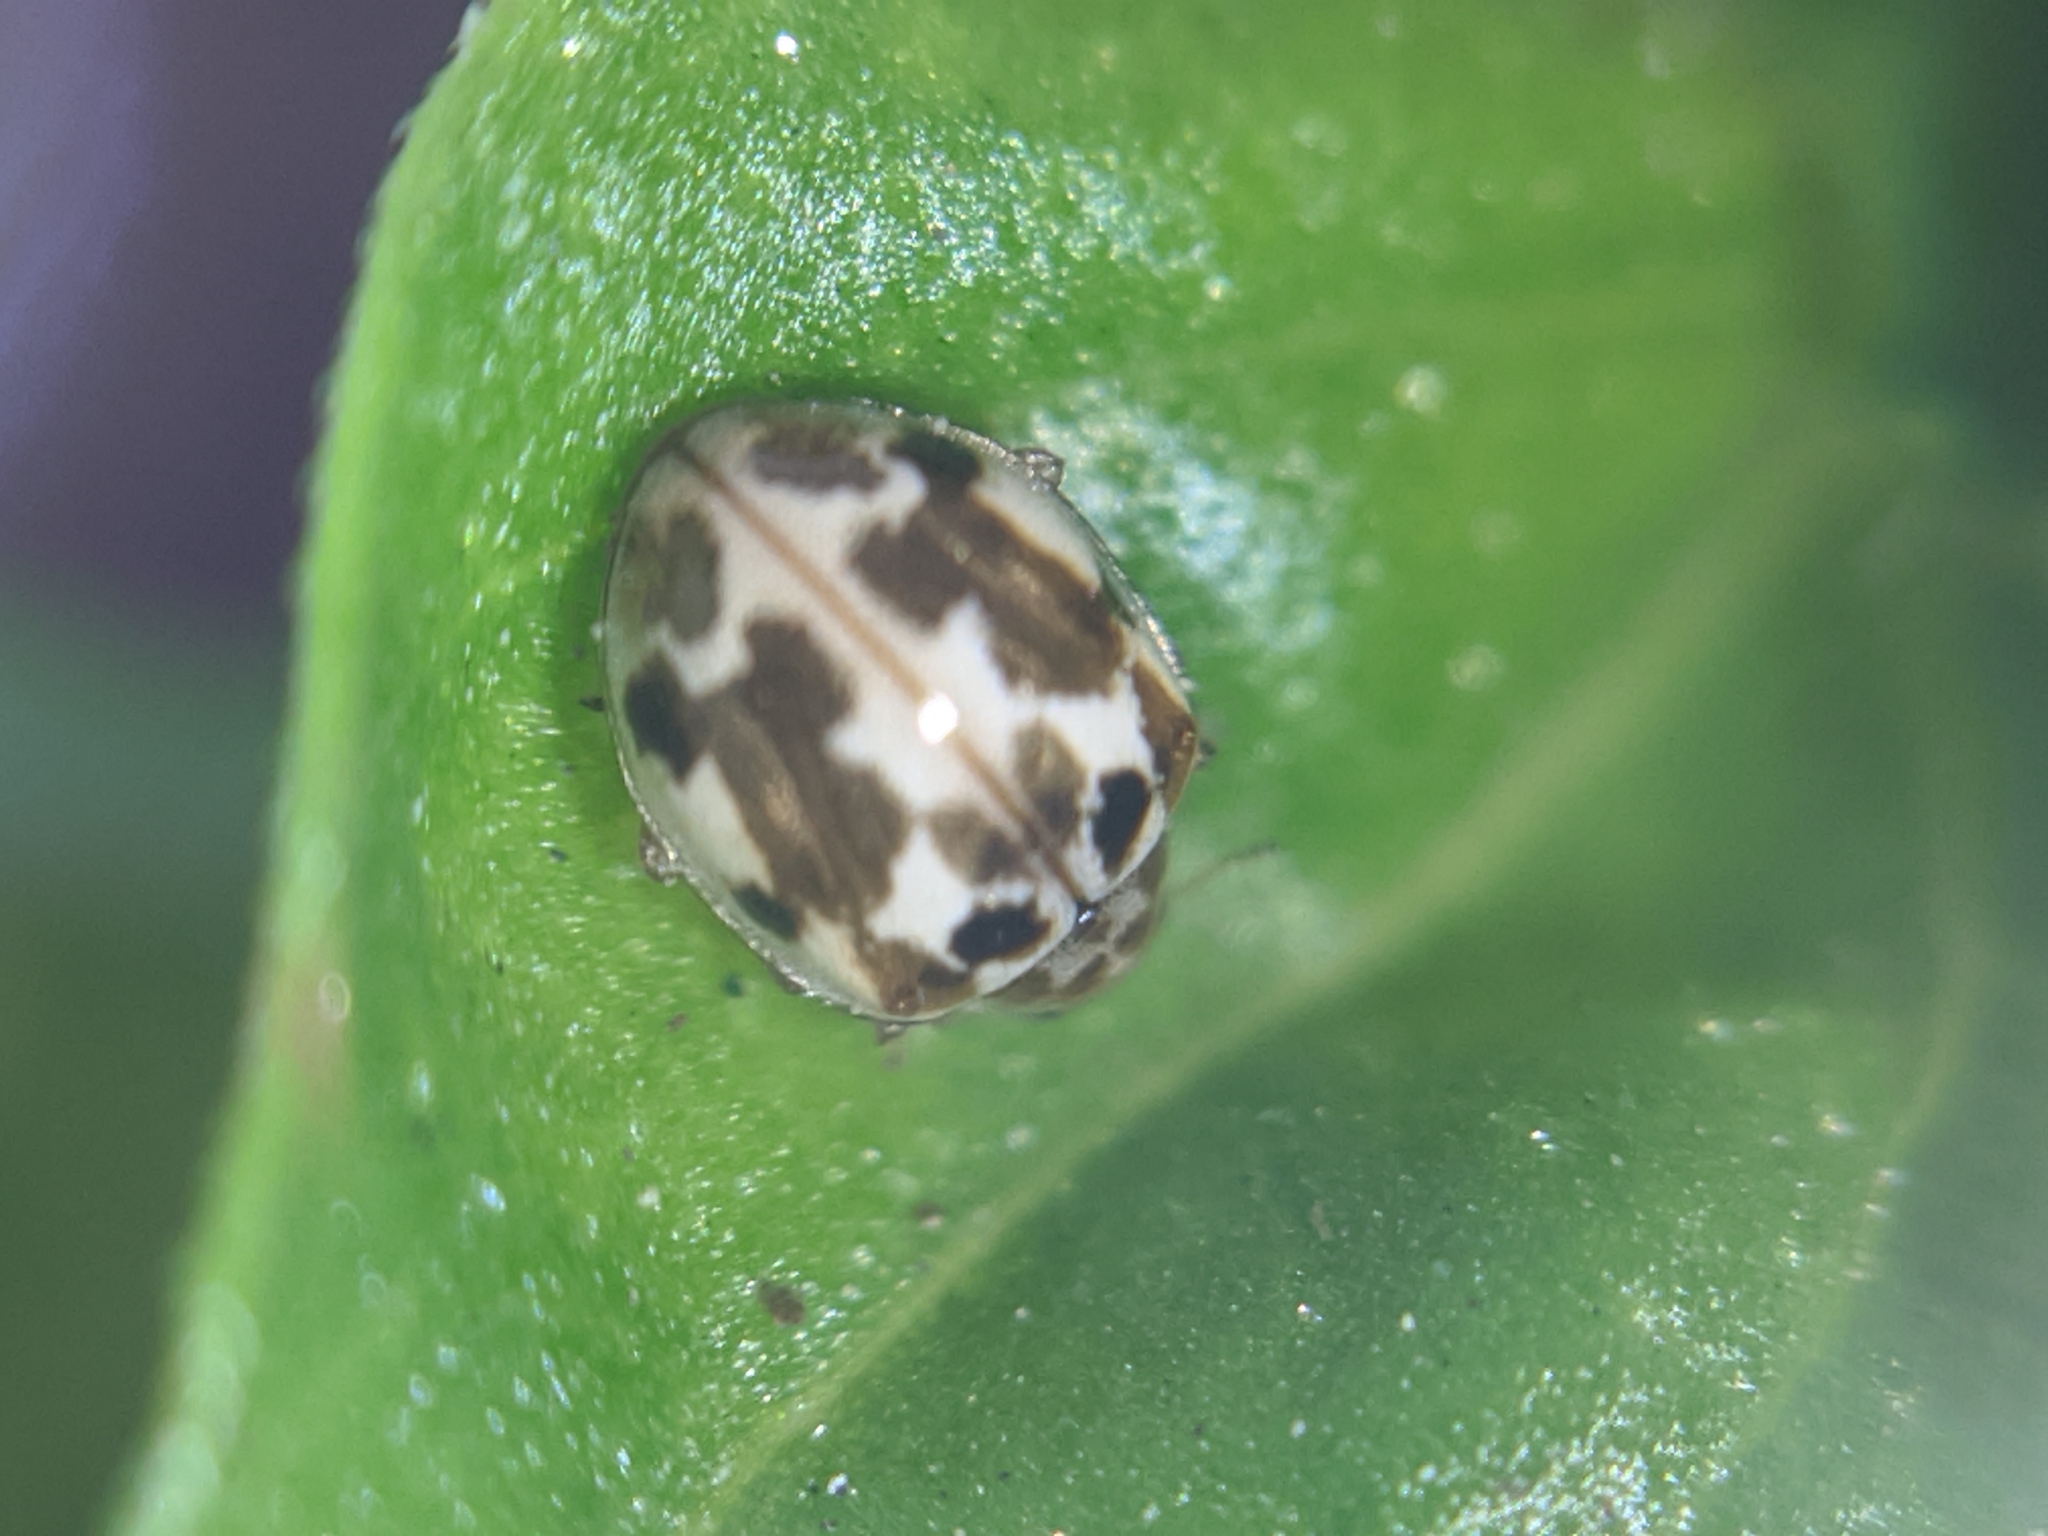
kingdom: Animalia
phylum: Arthropoda
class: Insecta
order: Coleoptera
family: Coccinellidae
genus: Psyllobora
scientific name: Psyllobora vigintimaculata
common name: Ladybird beetle
